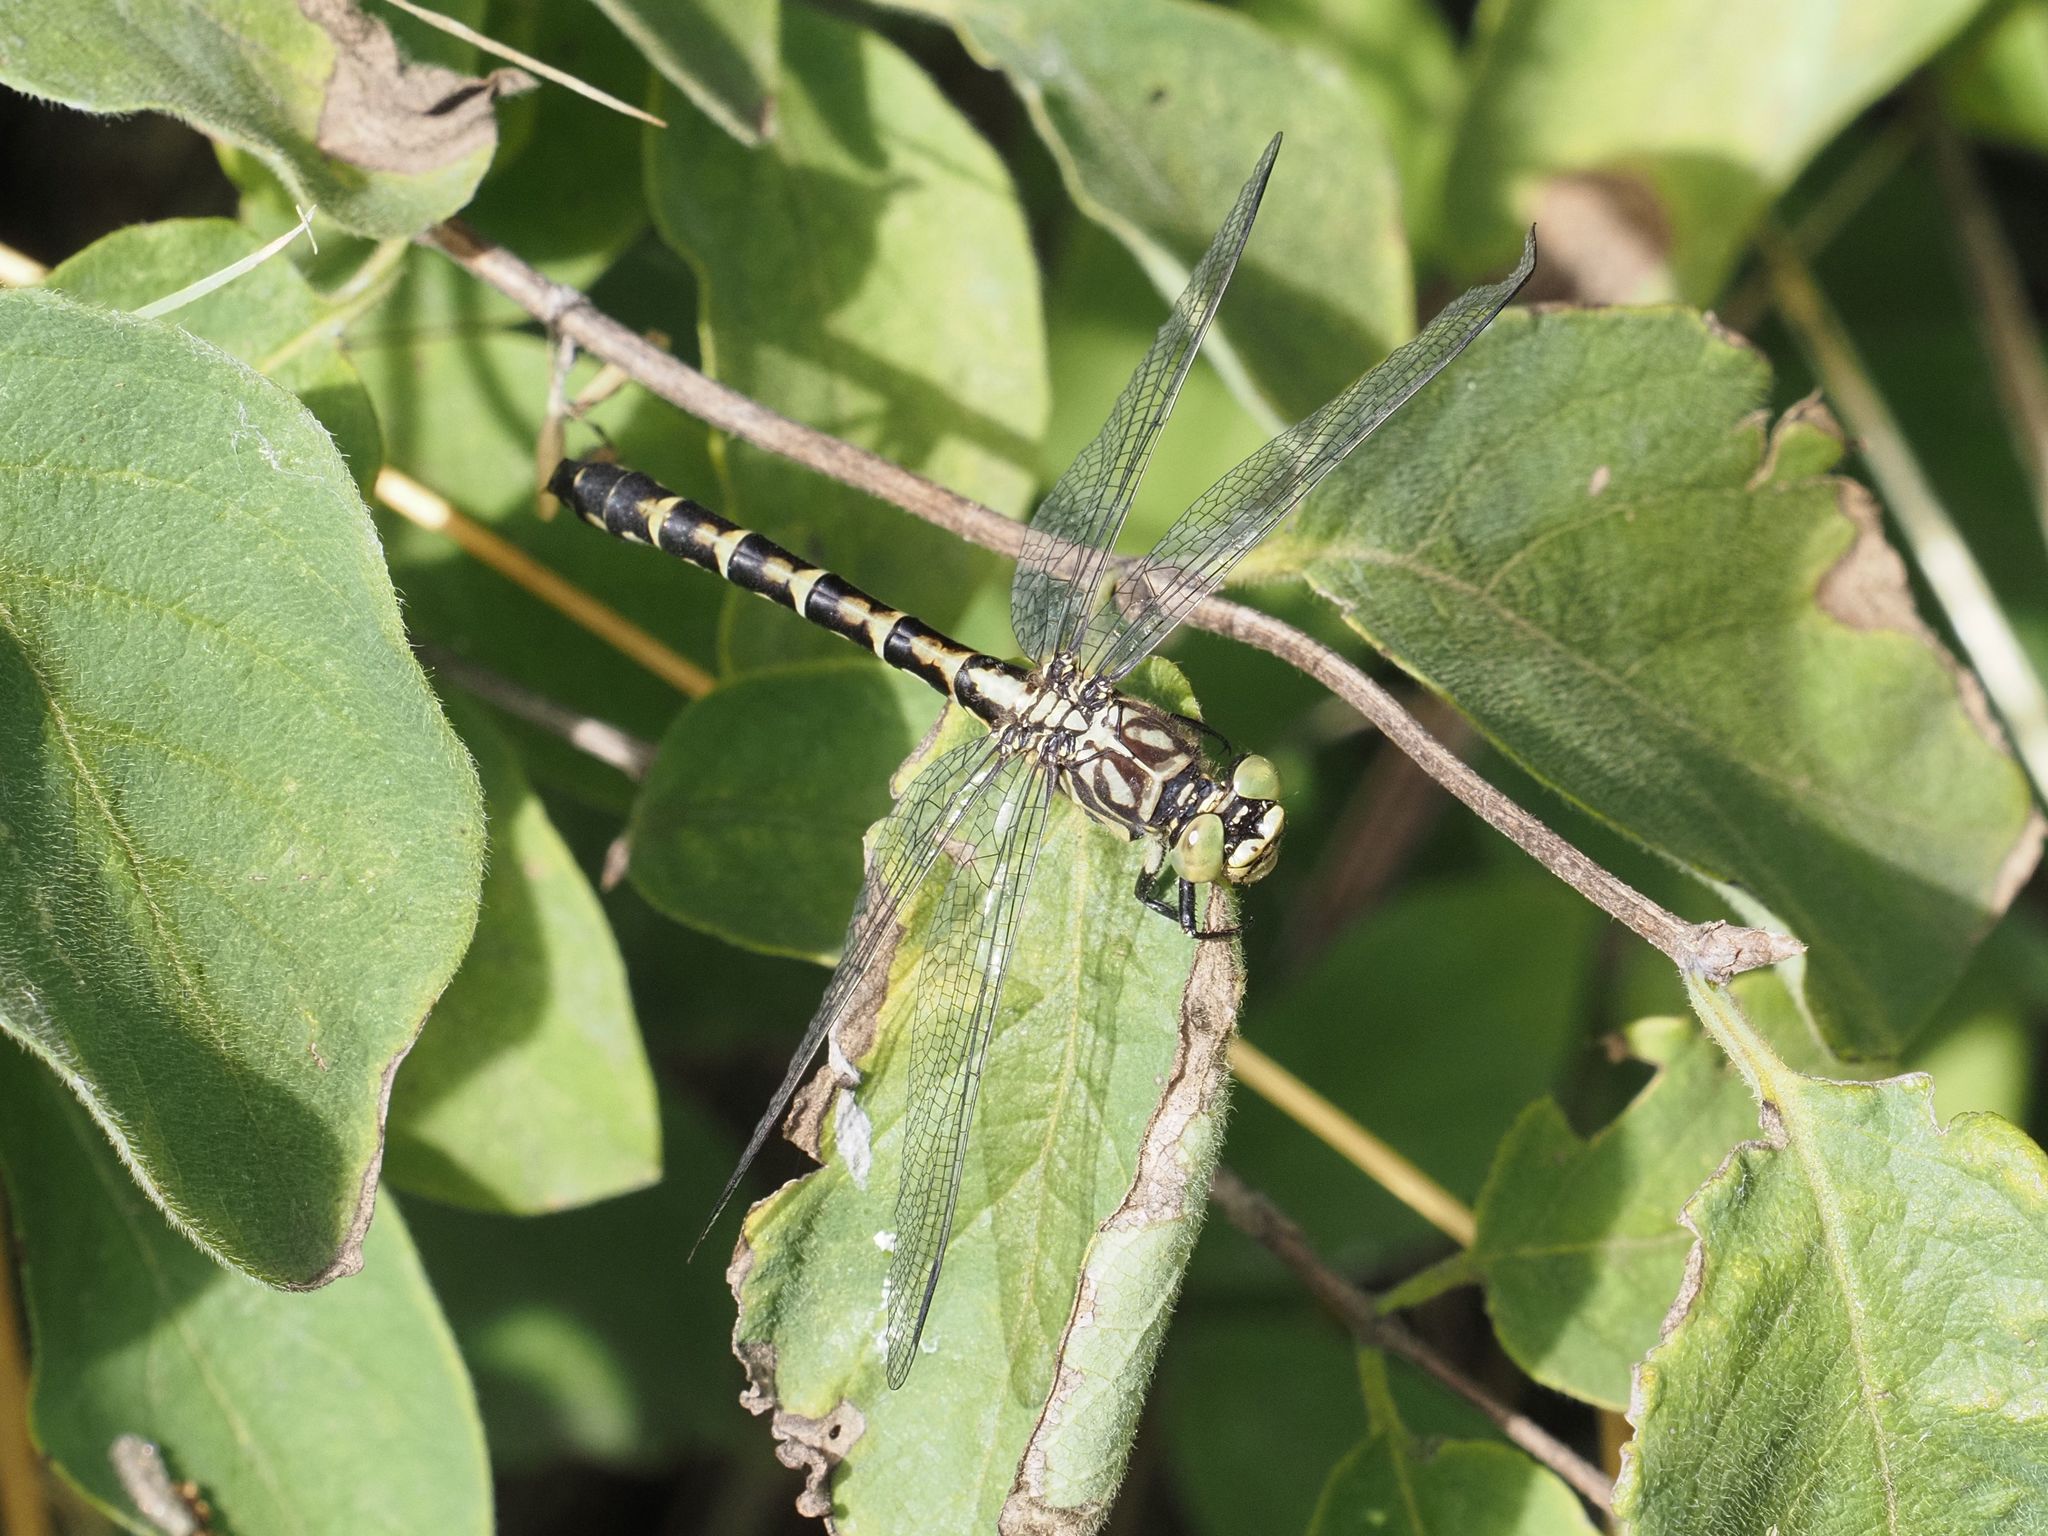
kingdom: Animalia
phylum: Arthropoda
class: Insecta
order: Odonata
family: Gomphidae
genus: Onychogomphus
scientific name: Onychogomphus forcipatus
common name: Small pincertail
